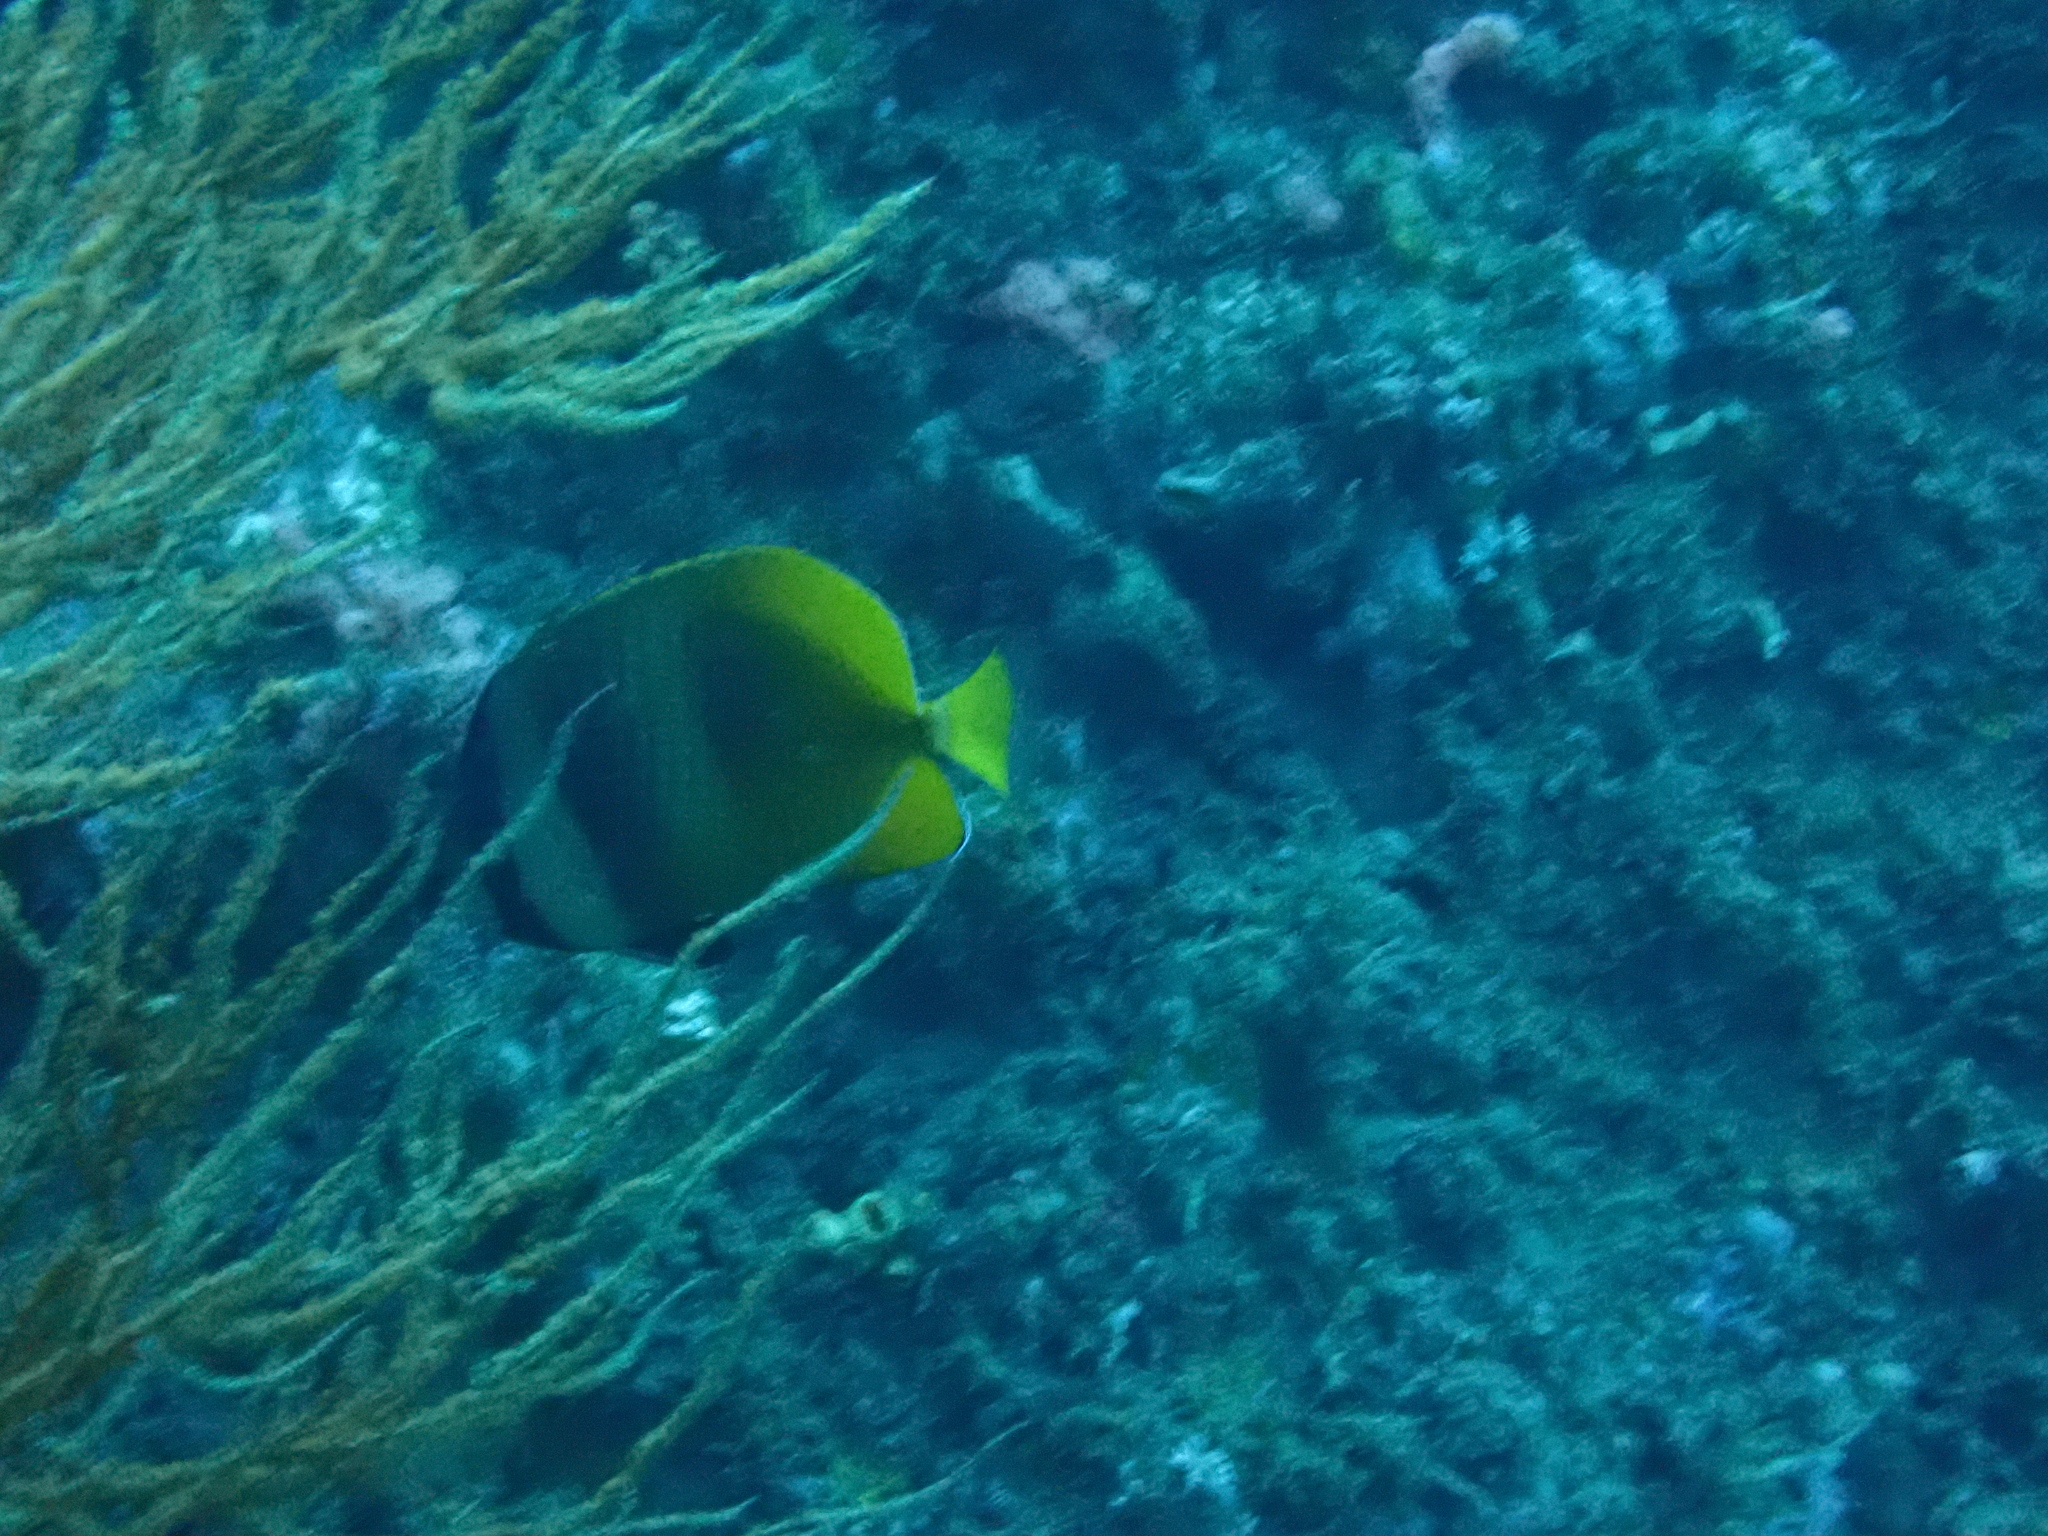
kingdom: Animalia
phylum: Chordata
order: Perciformes
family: Chaetodontidae
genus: Chaetodon
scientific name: Chaetodon kleinii
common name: Klein's butterflyfish
